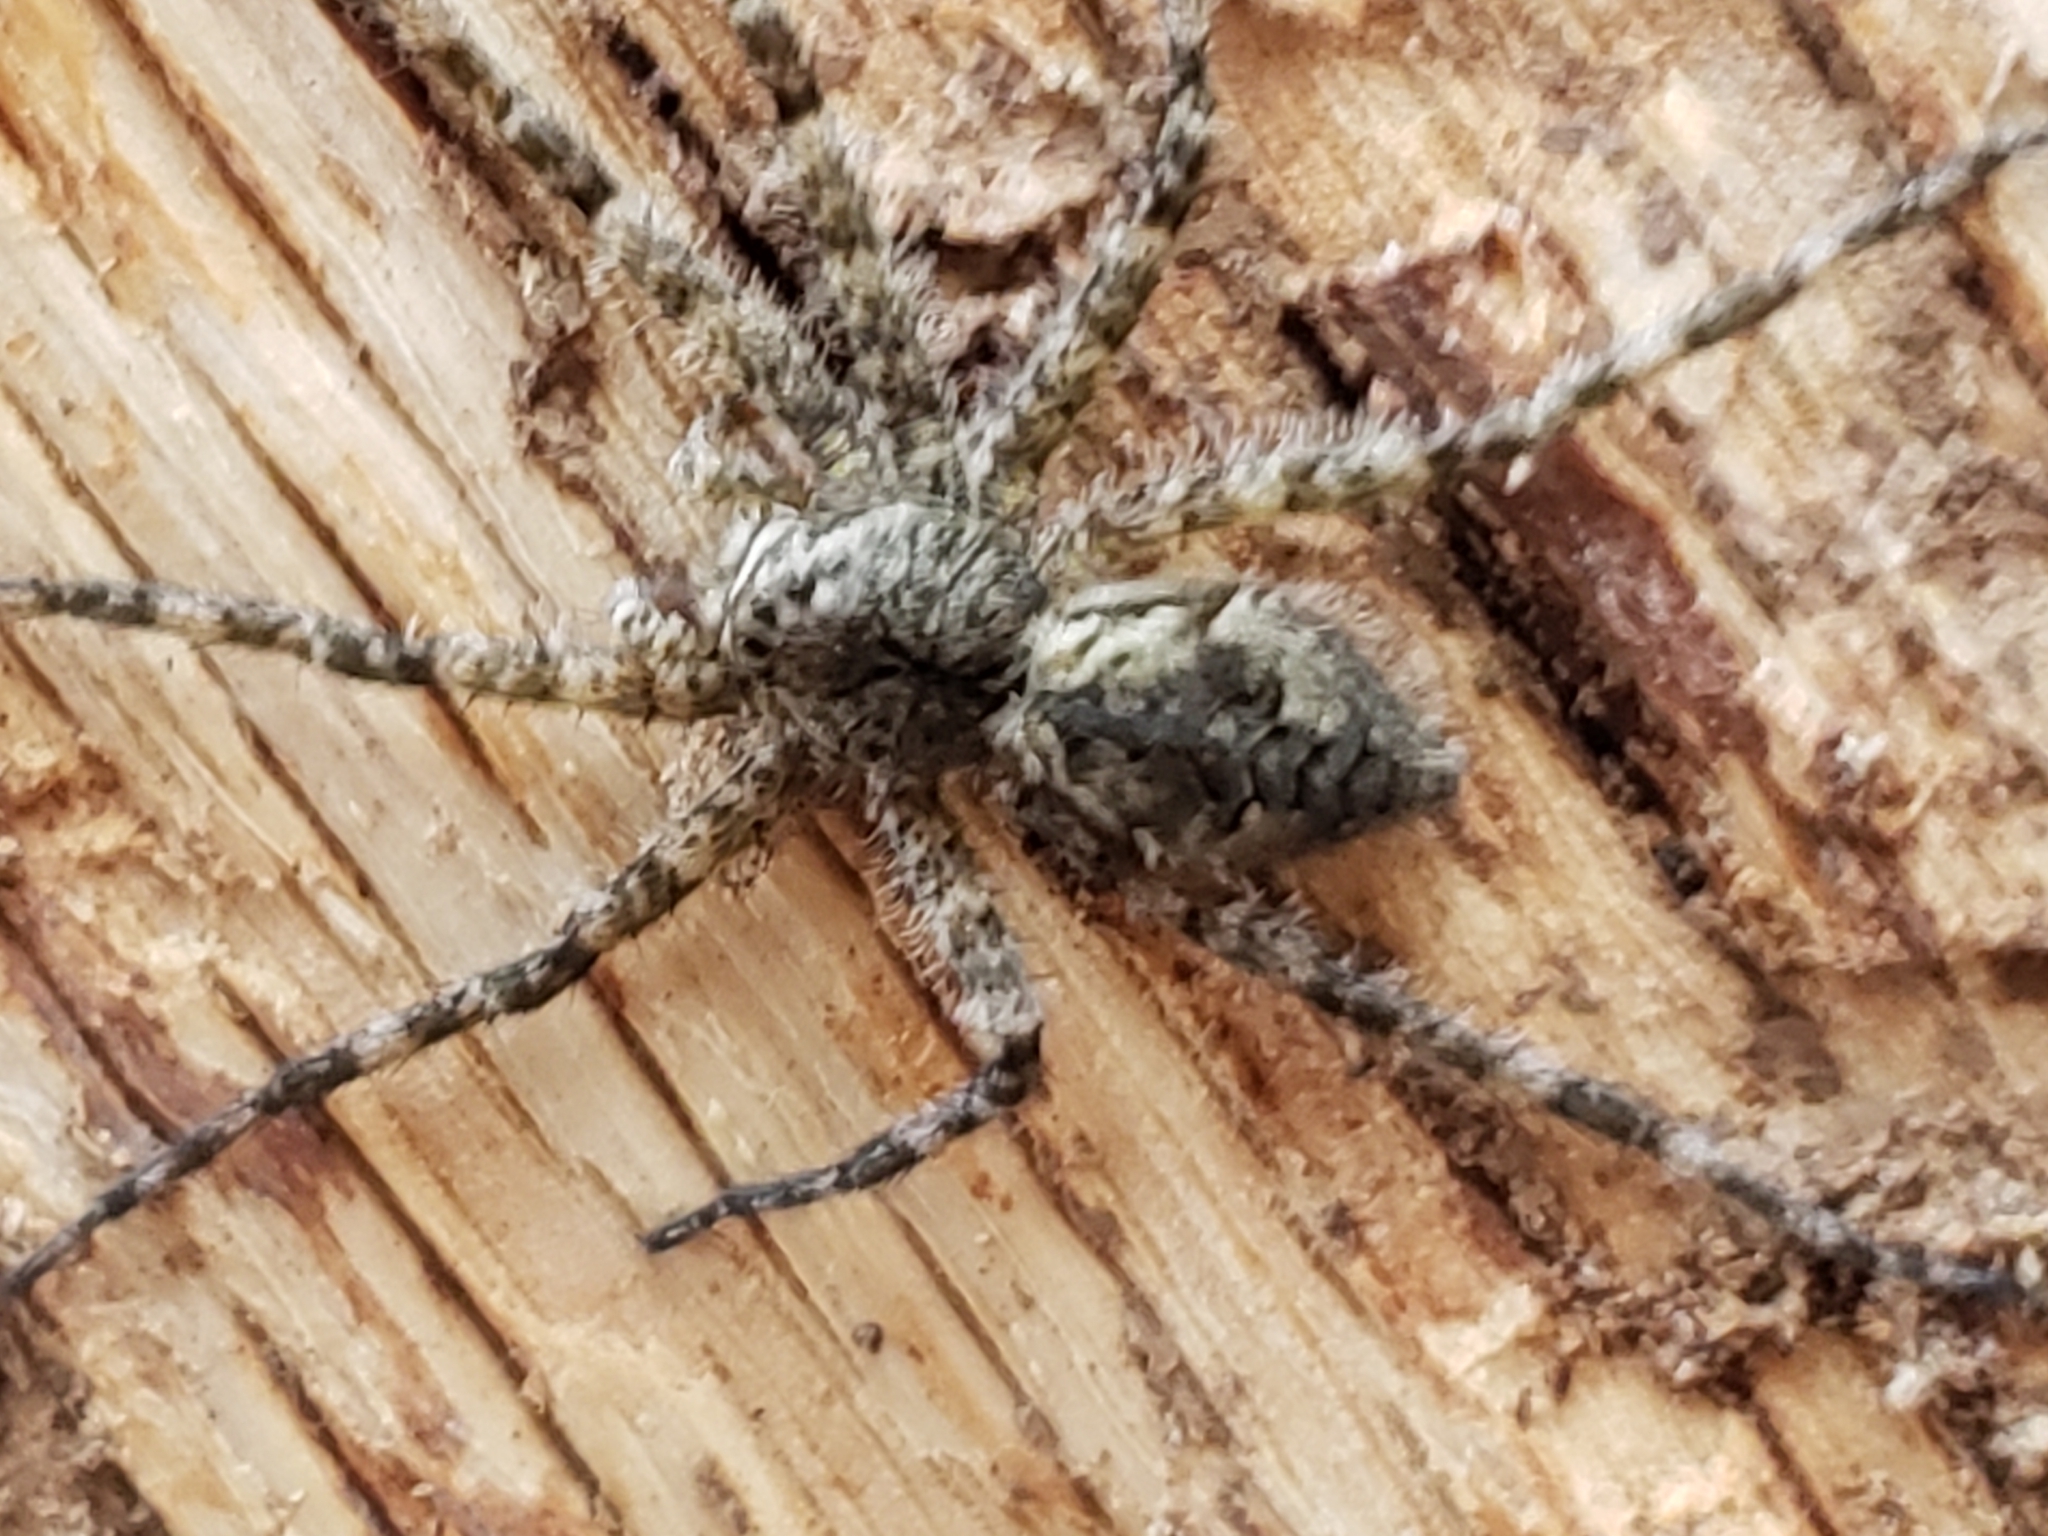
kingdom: Animalia
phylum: Arthropoda
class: Arachnida
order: Araneae
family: Pisauridae
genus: Dolomedes
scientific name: Dolomedes albineus
